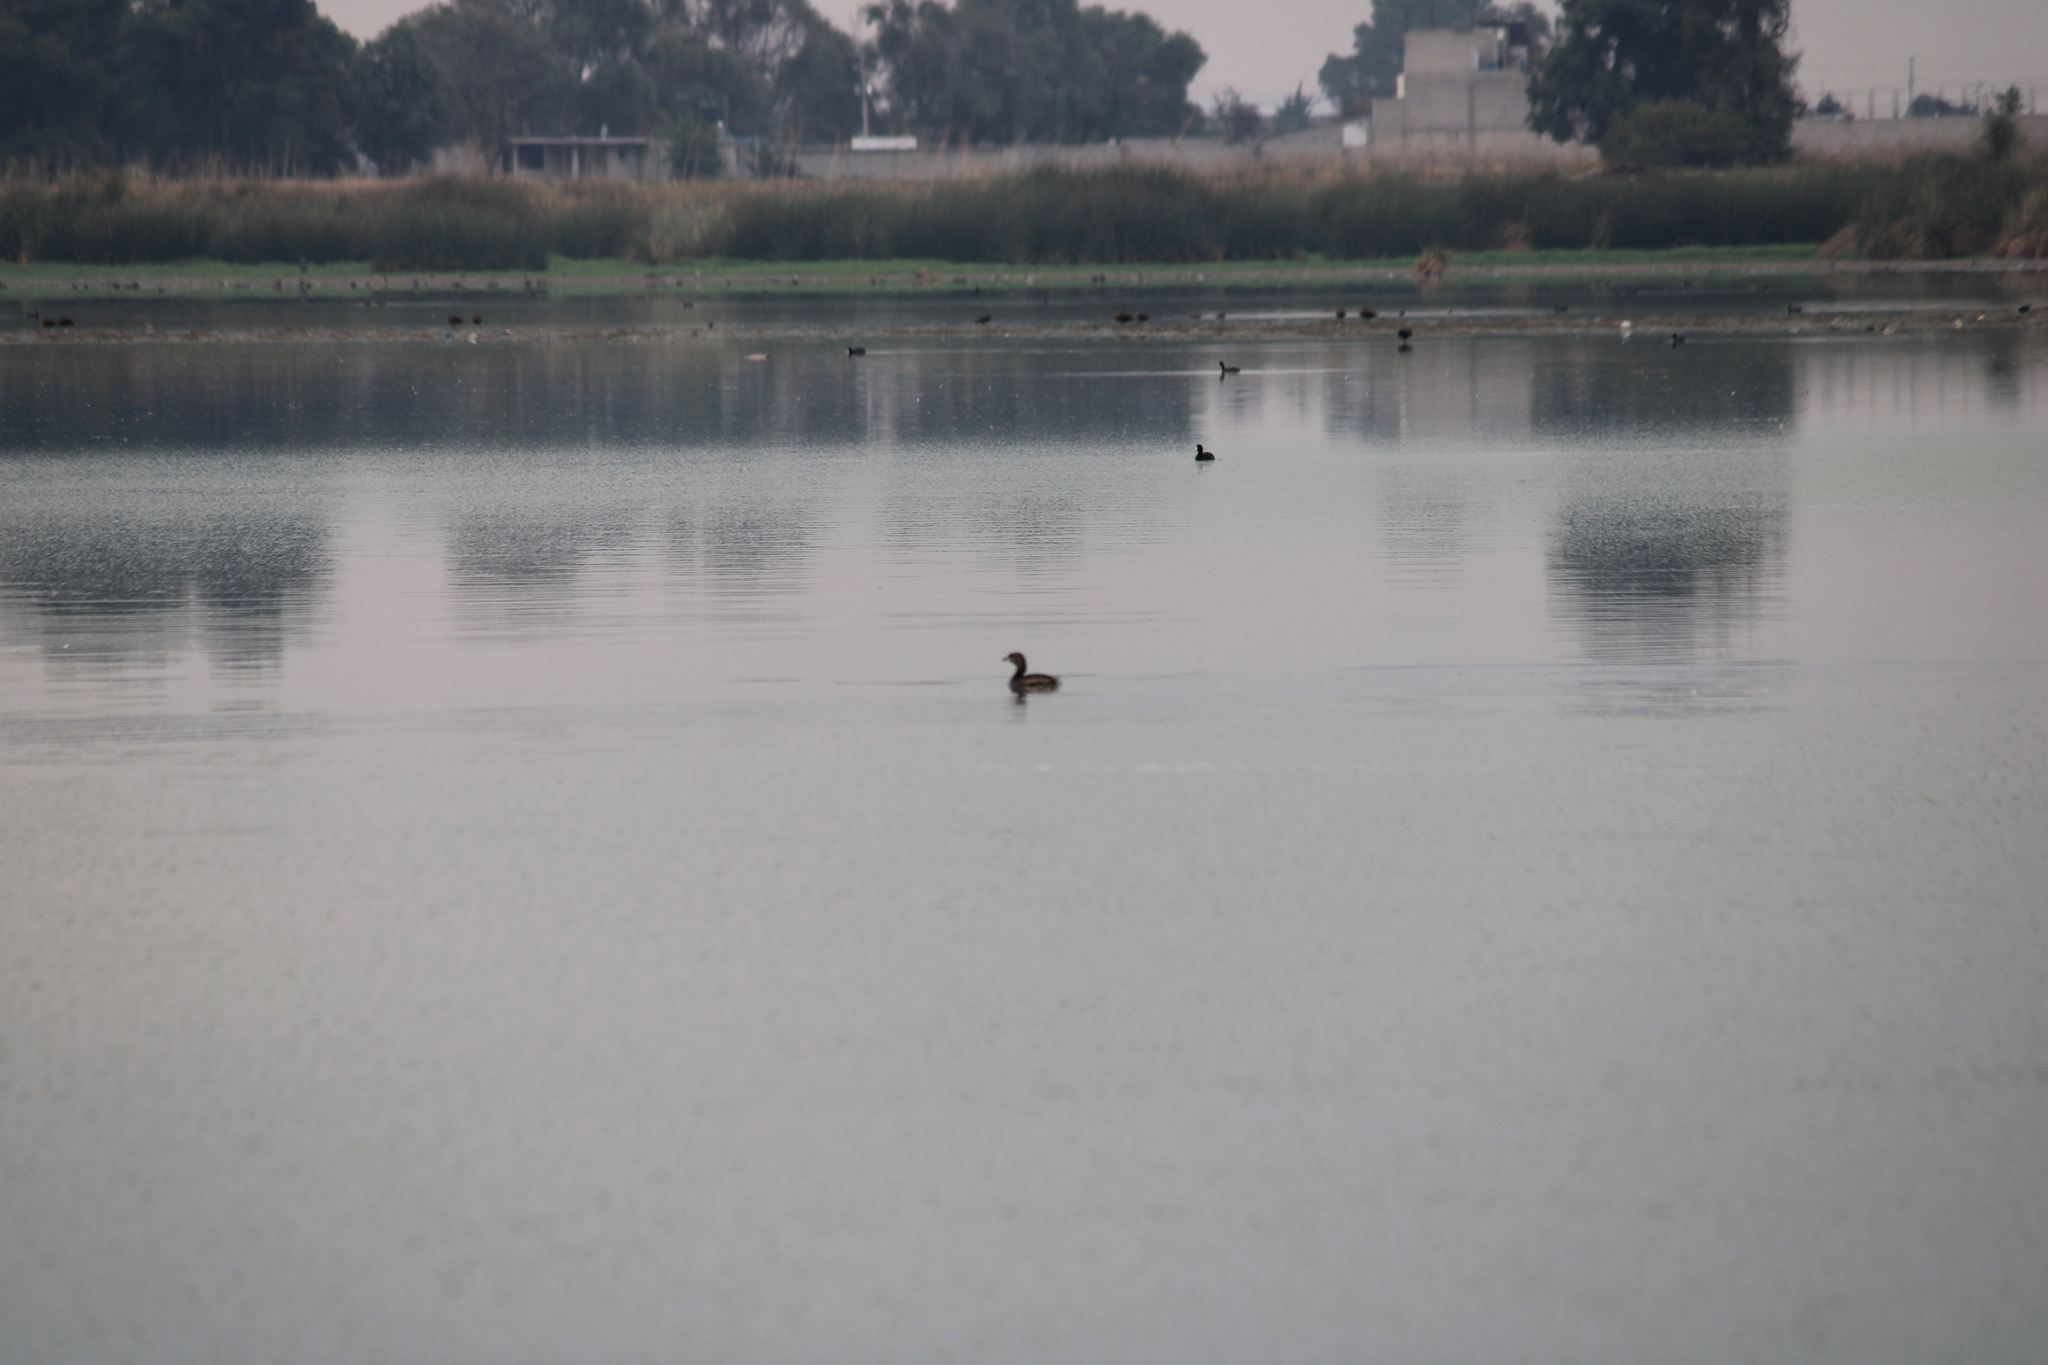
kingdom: Animalia
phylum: Chordata
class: Aves
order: Podicipediformes
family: Podicipedidae
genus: Podilymbus
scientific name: Podilymbus podiceps
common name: Pied-billed grebe
